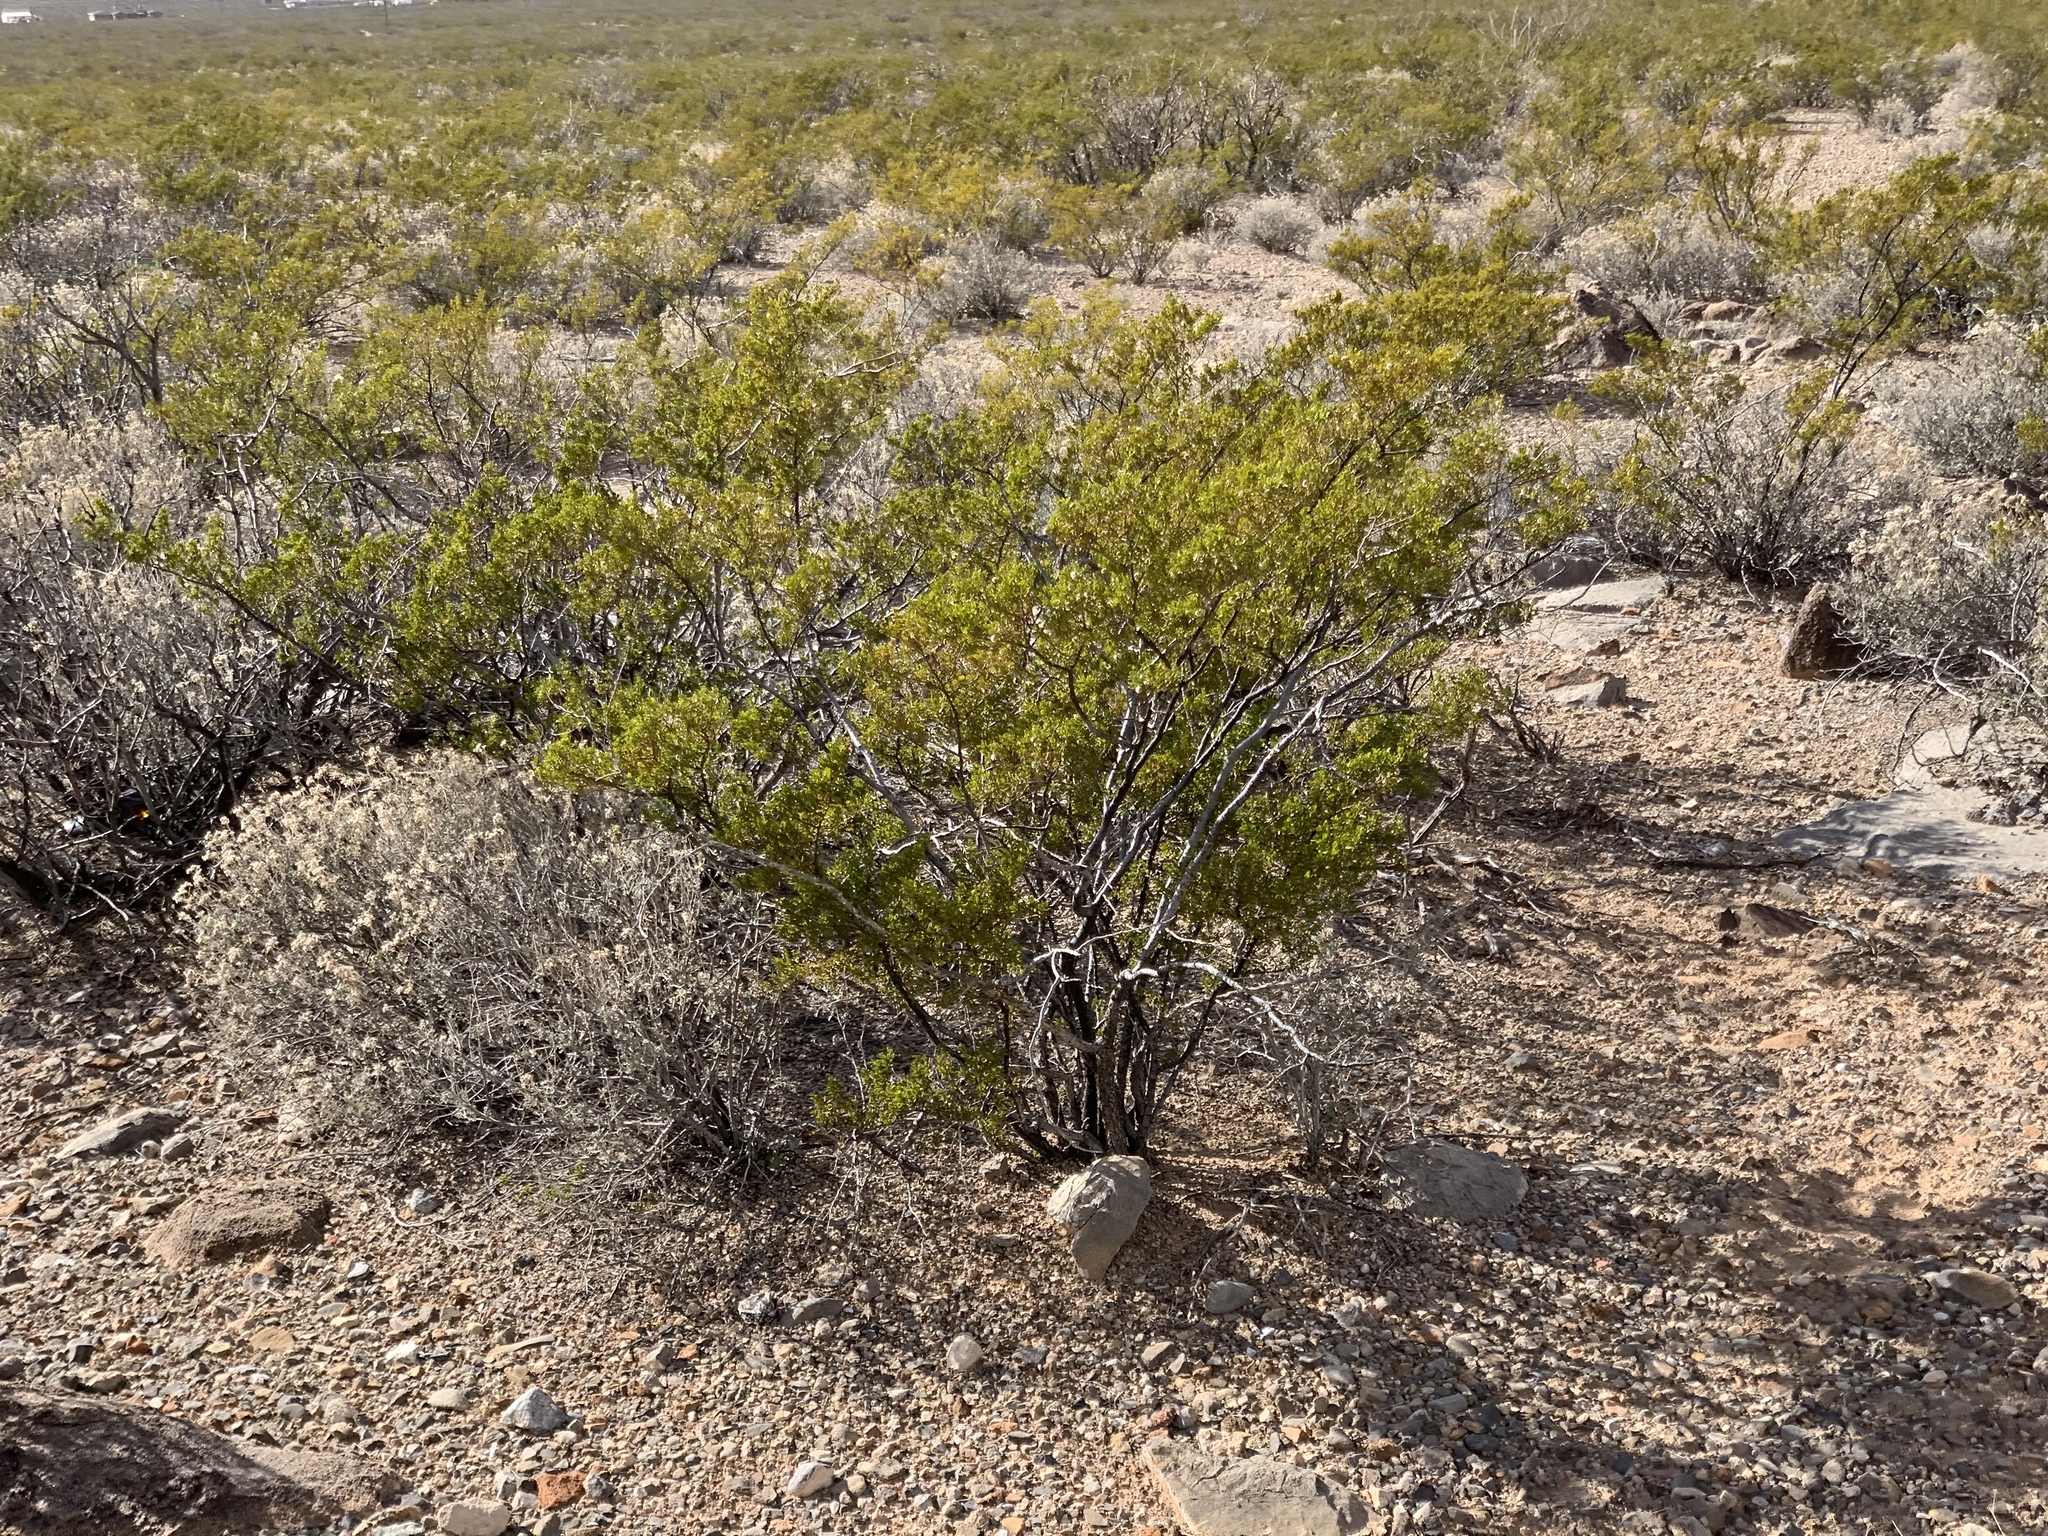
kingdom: Plantae
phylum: Tracheophyta
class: Magnoliopsida
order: Zygophyllales
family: Zygophyllaceae
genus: Larrea
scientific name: Larrea tridentata
